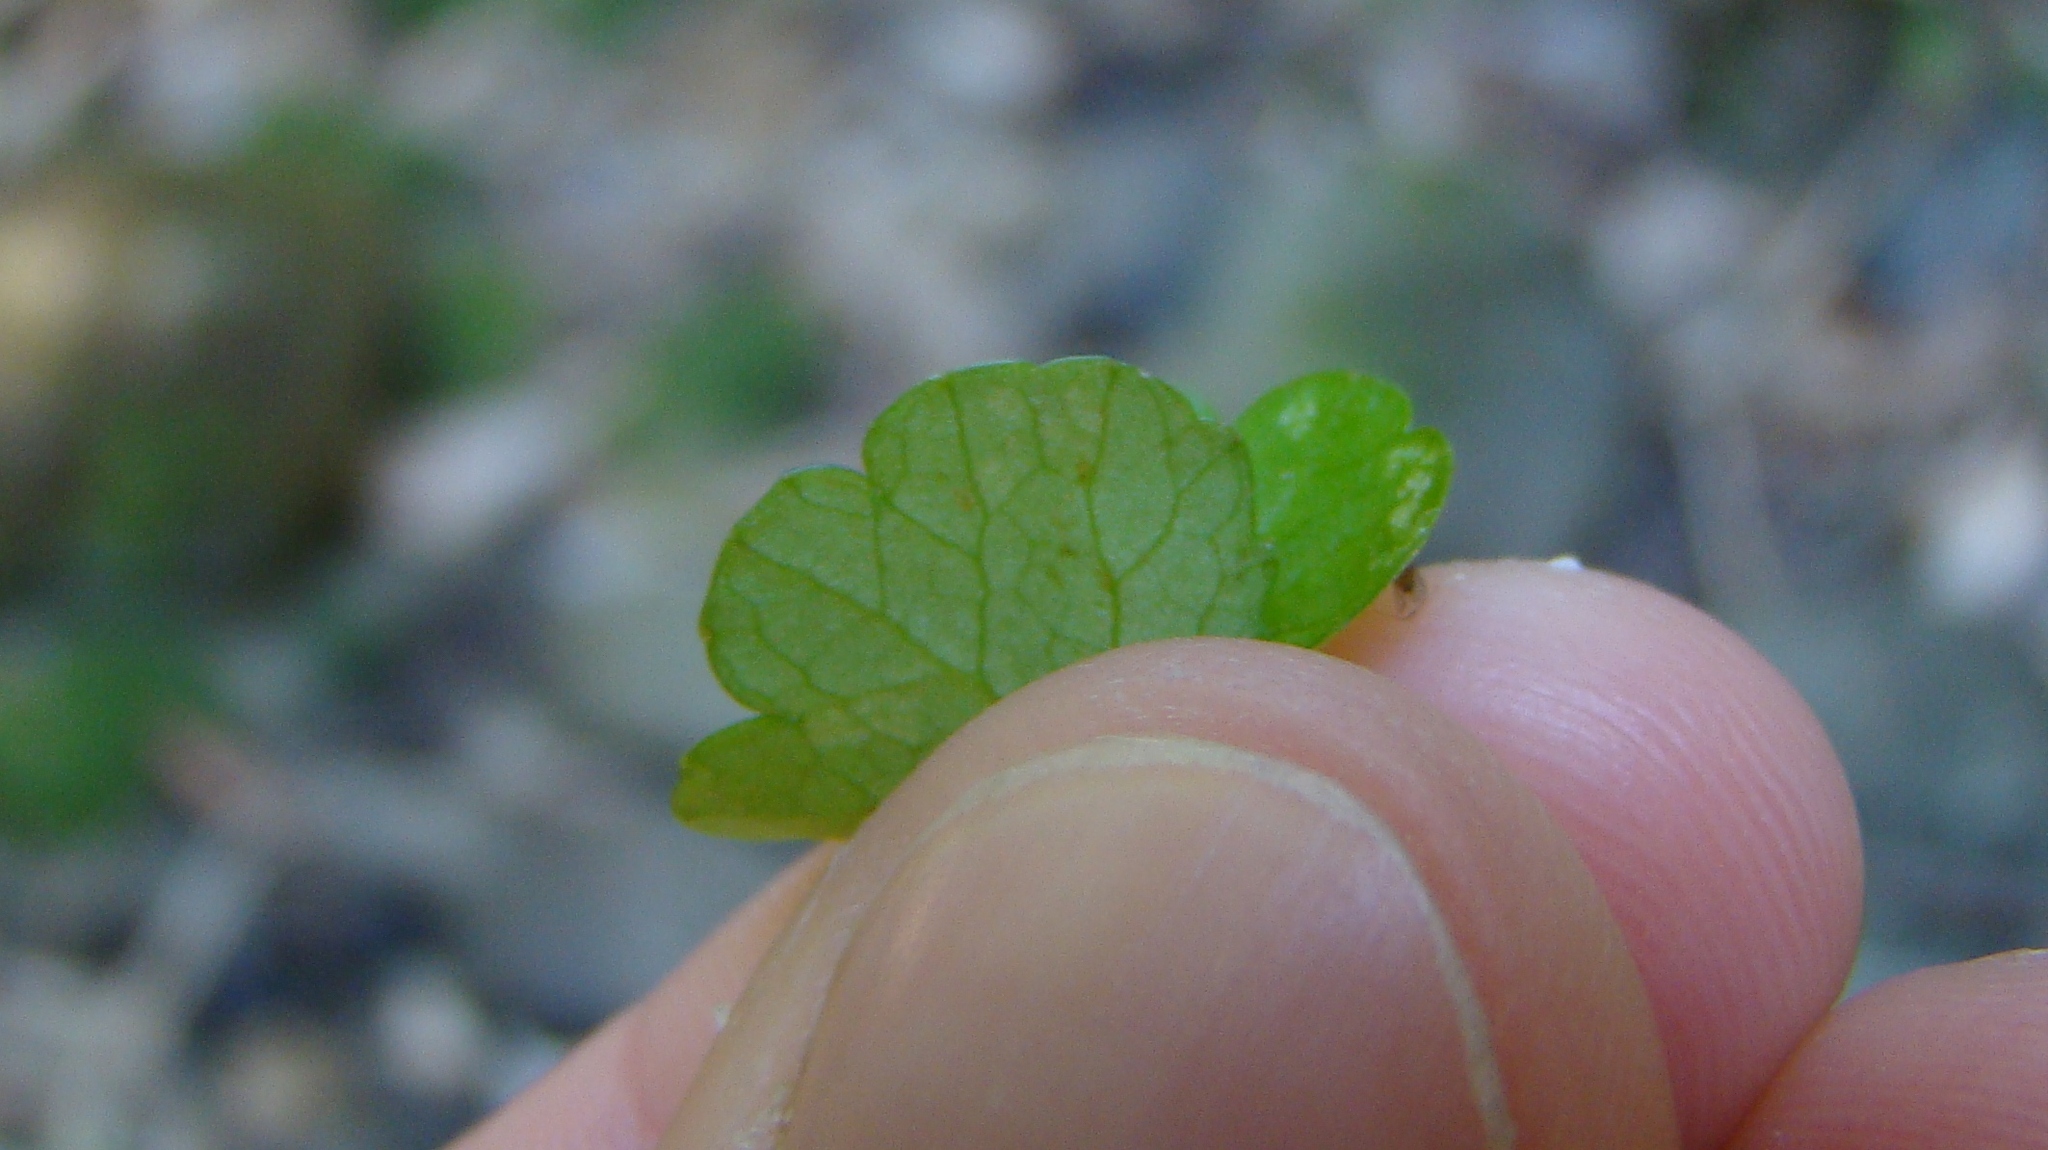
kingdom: Plantae
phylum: Tracheophyta
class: Magnoliopsida
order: Apiales
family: Araliaceae
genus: Hydrocotyle
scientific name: Hydrocotyle heteromeria
